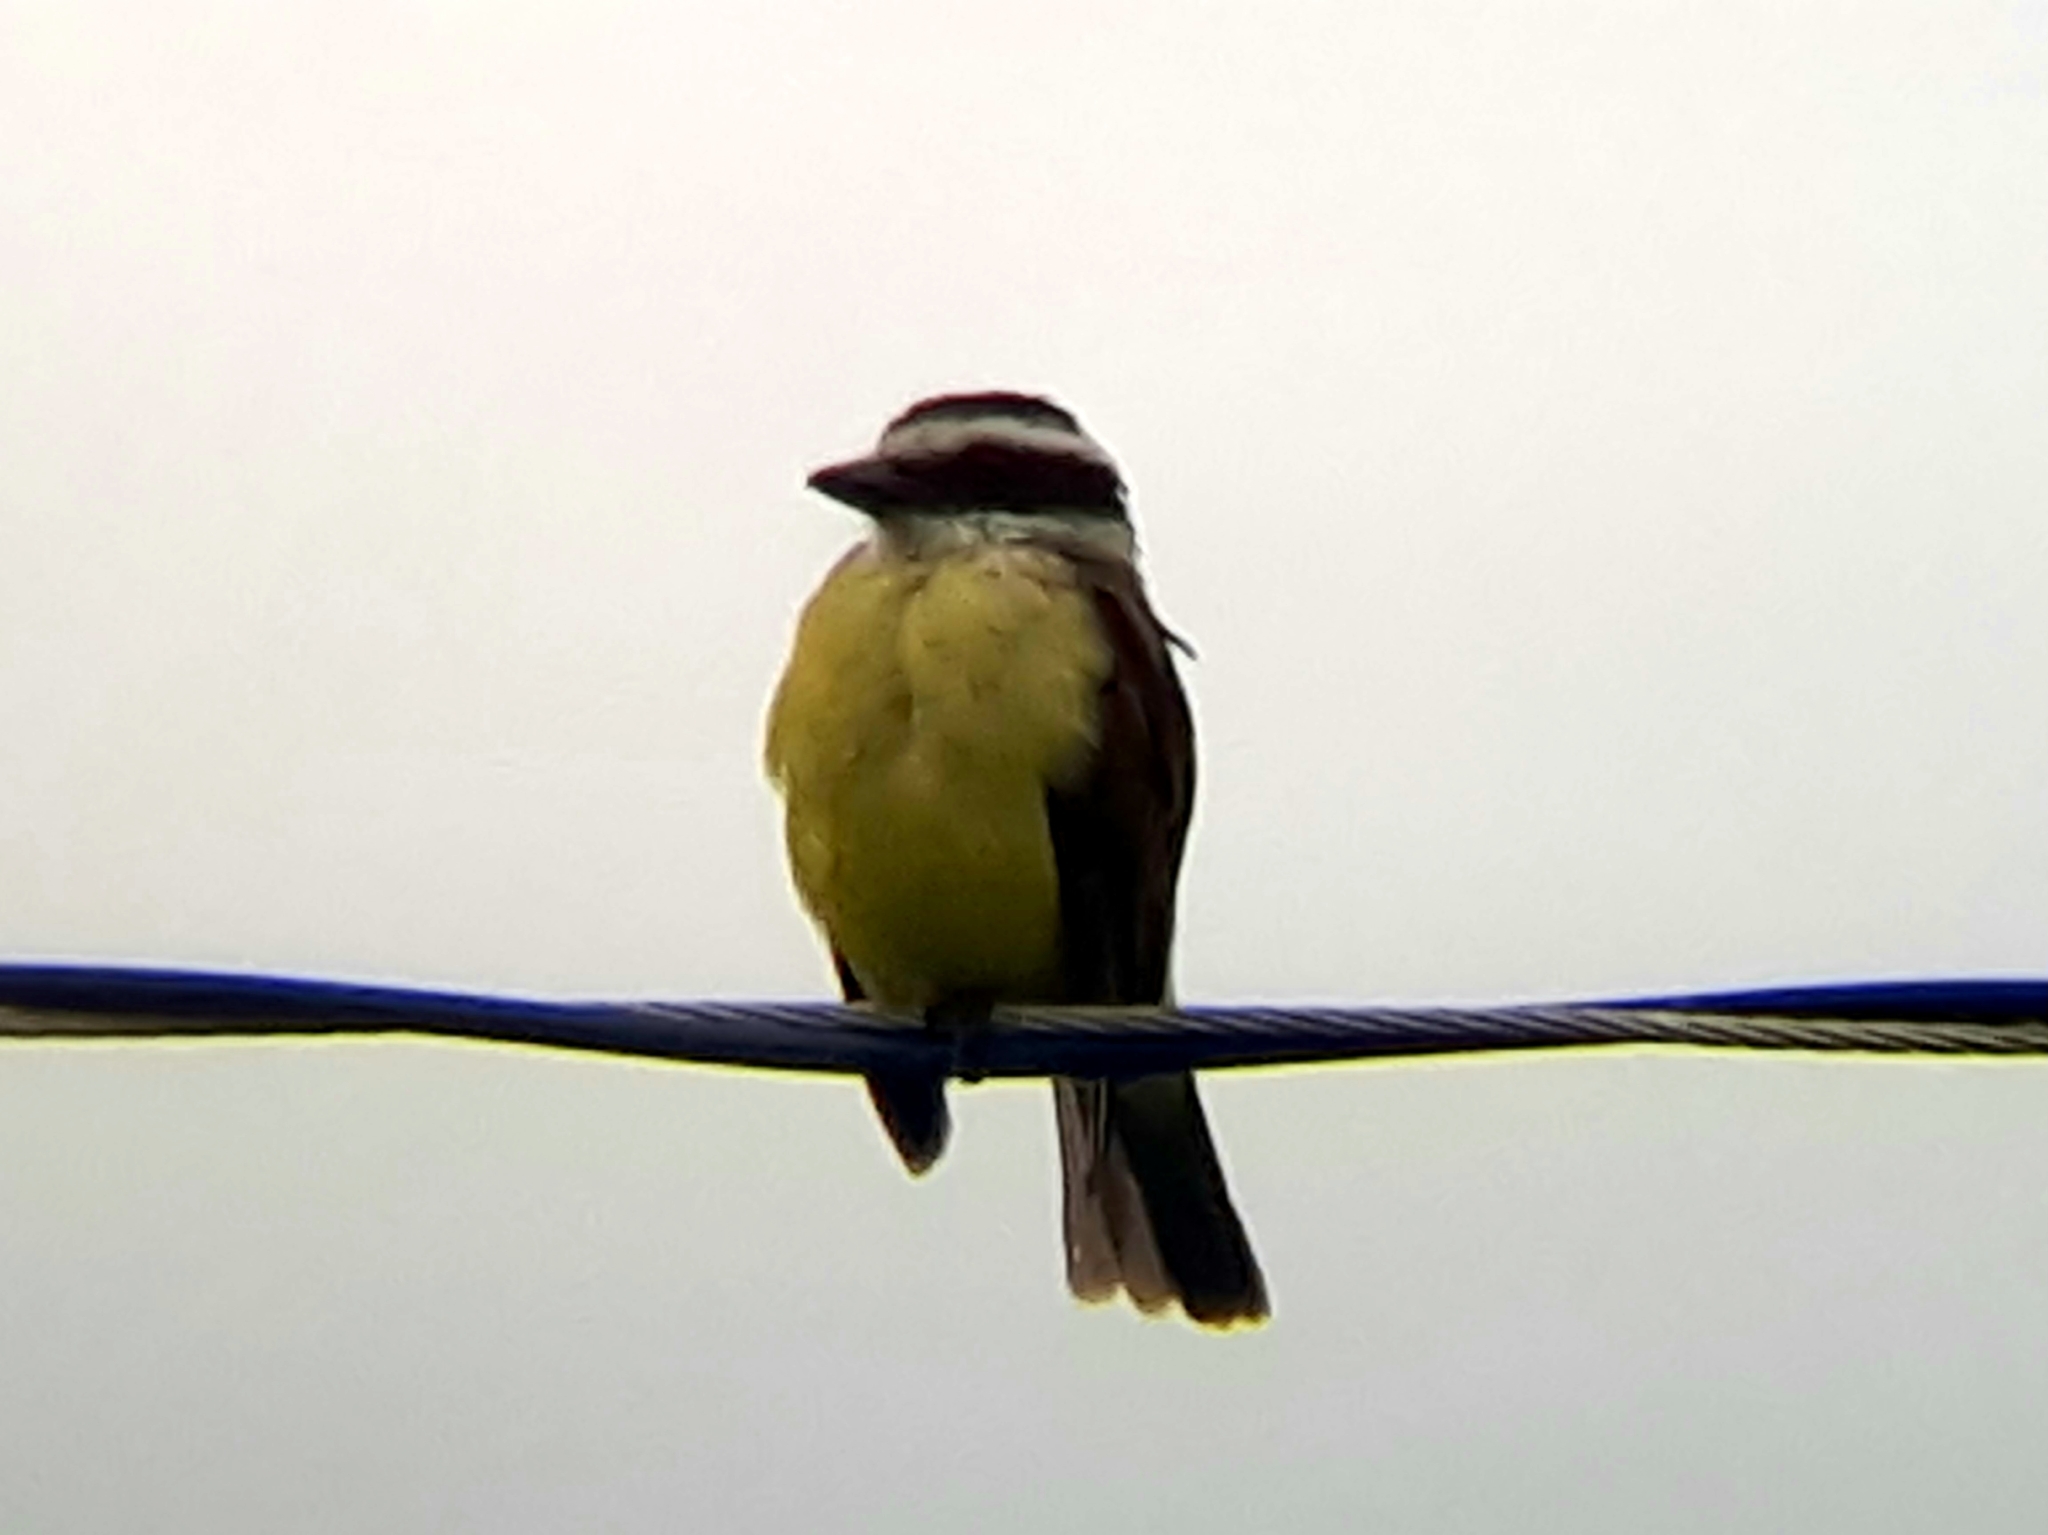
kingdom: Animalia
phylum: Chordata
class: Aves
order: Passeriformes
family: Tyrannidae
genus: Pitangus
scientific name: Pitangus sulphuratus
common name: Great kiskadee
